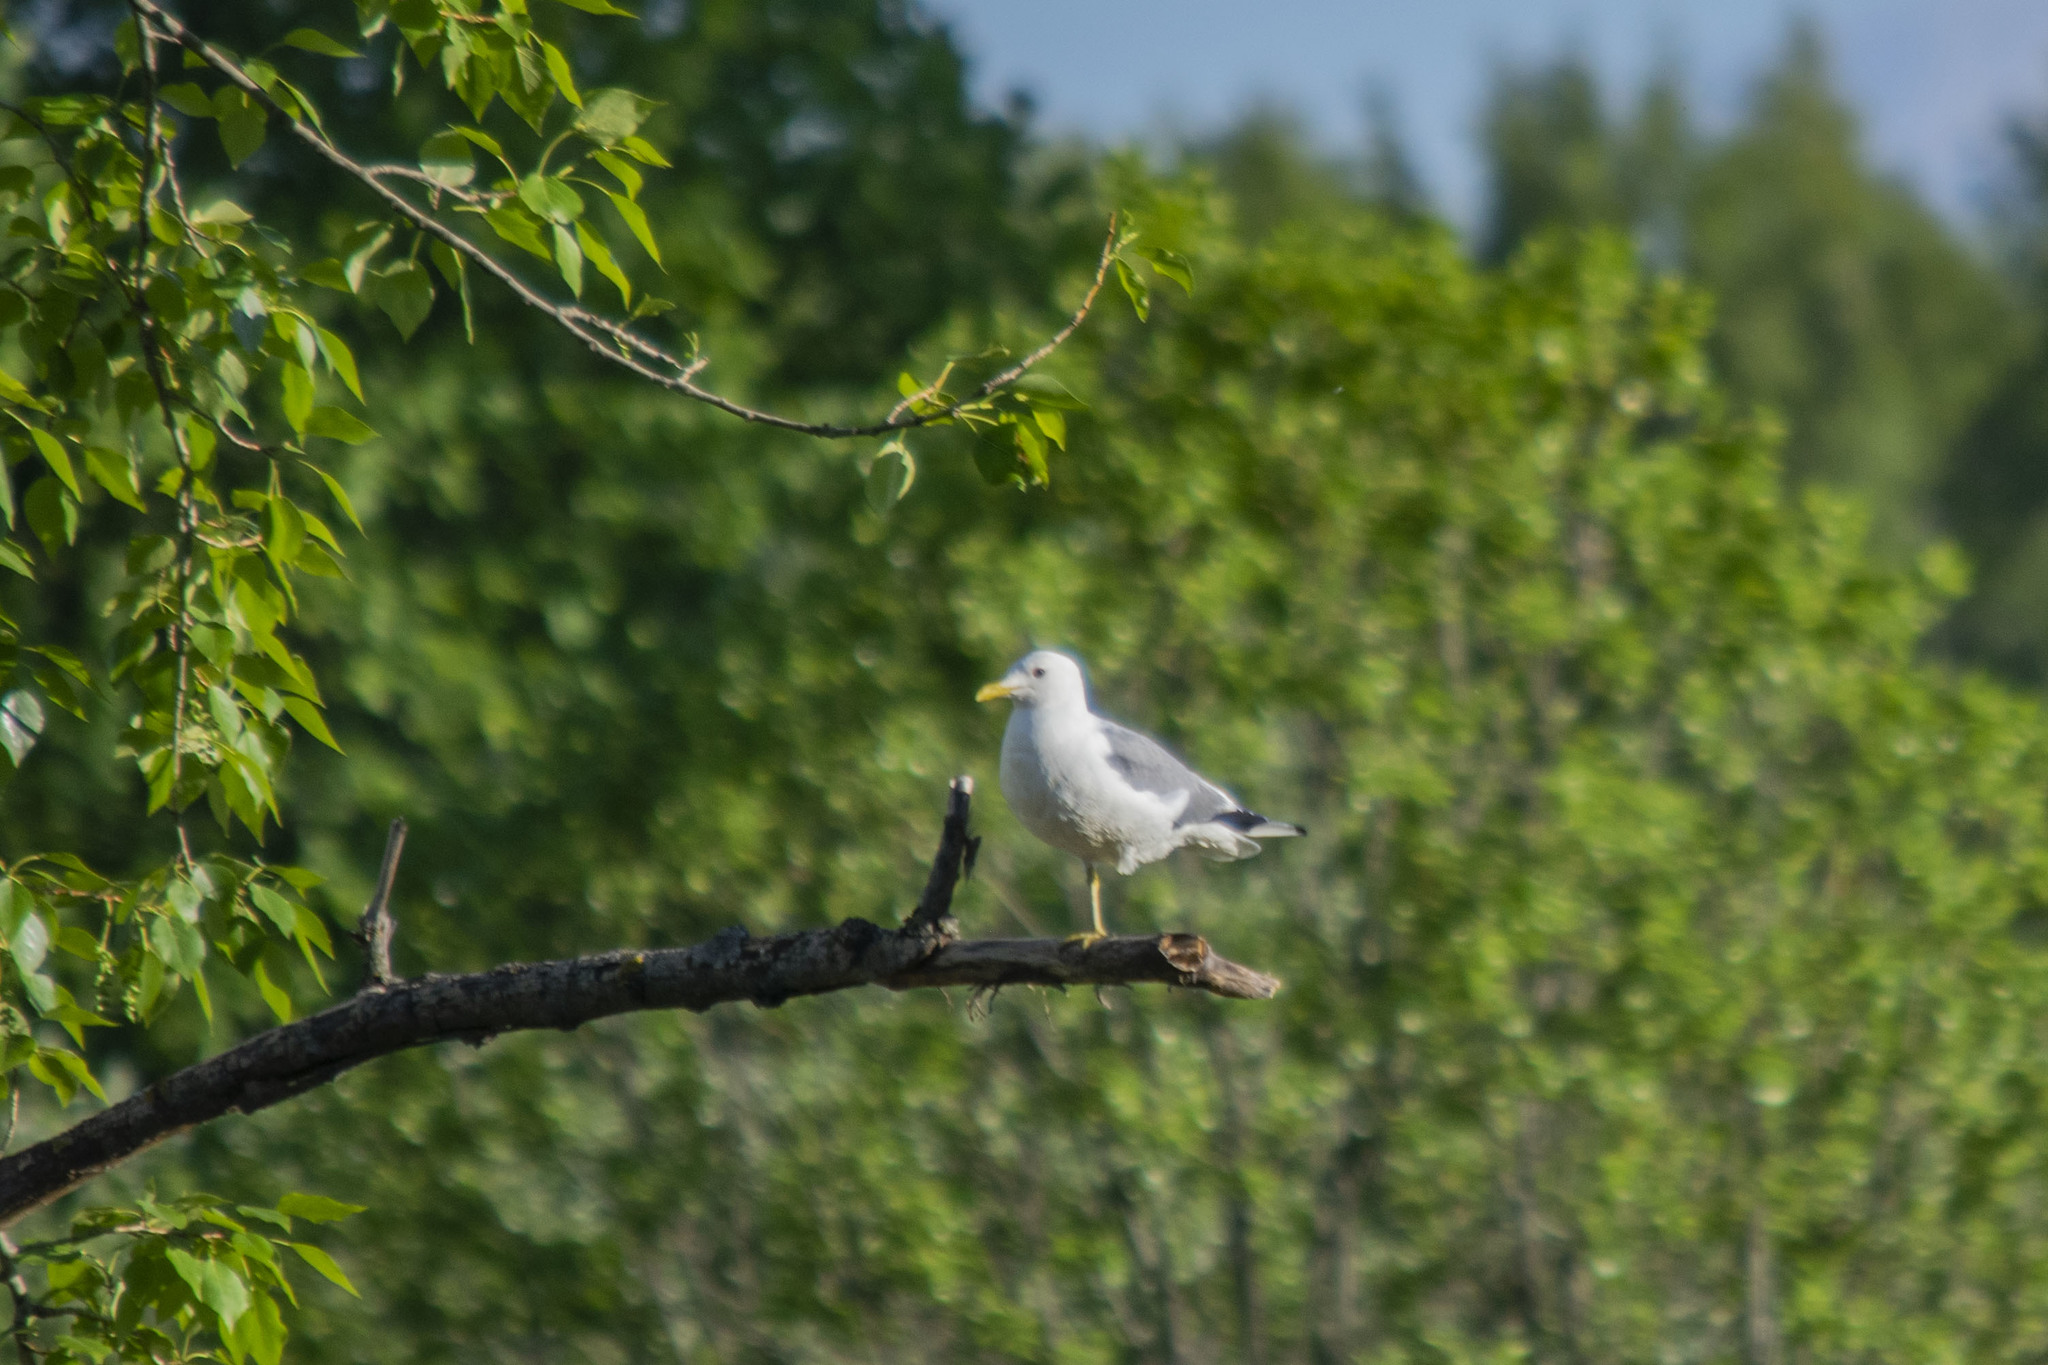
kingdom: Animalia
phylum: Chordata
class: Aves
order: Charadriiformes
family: Laridae
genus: Larus
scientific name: Larus canus
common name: Mew gull
